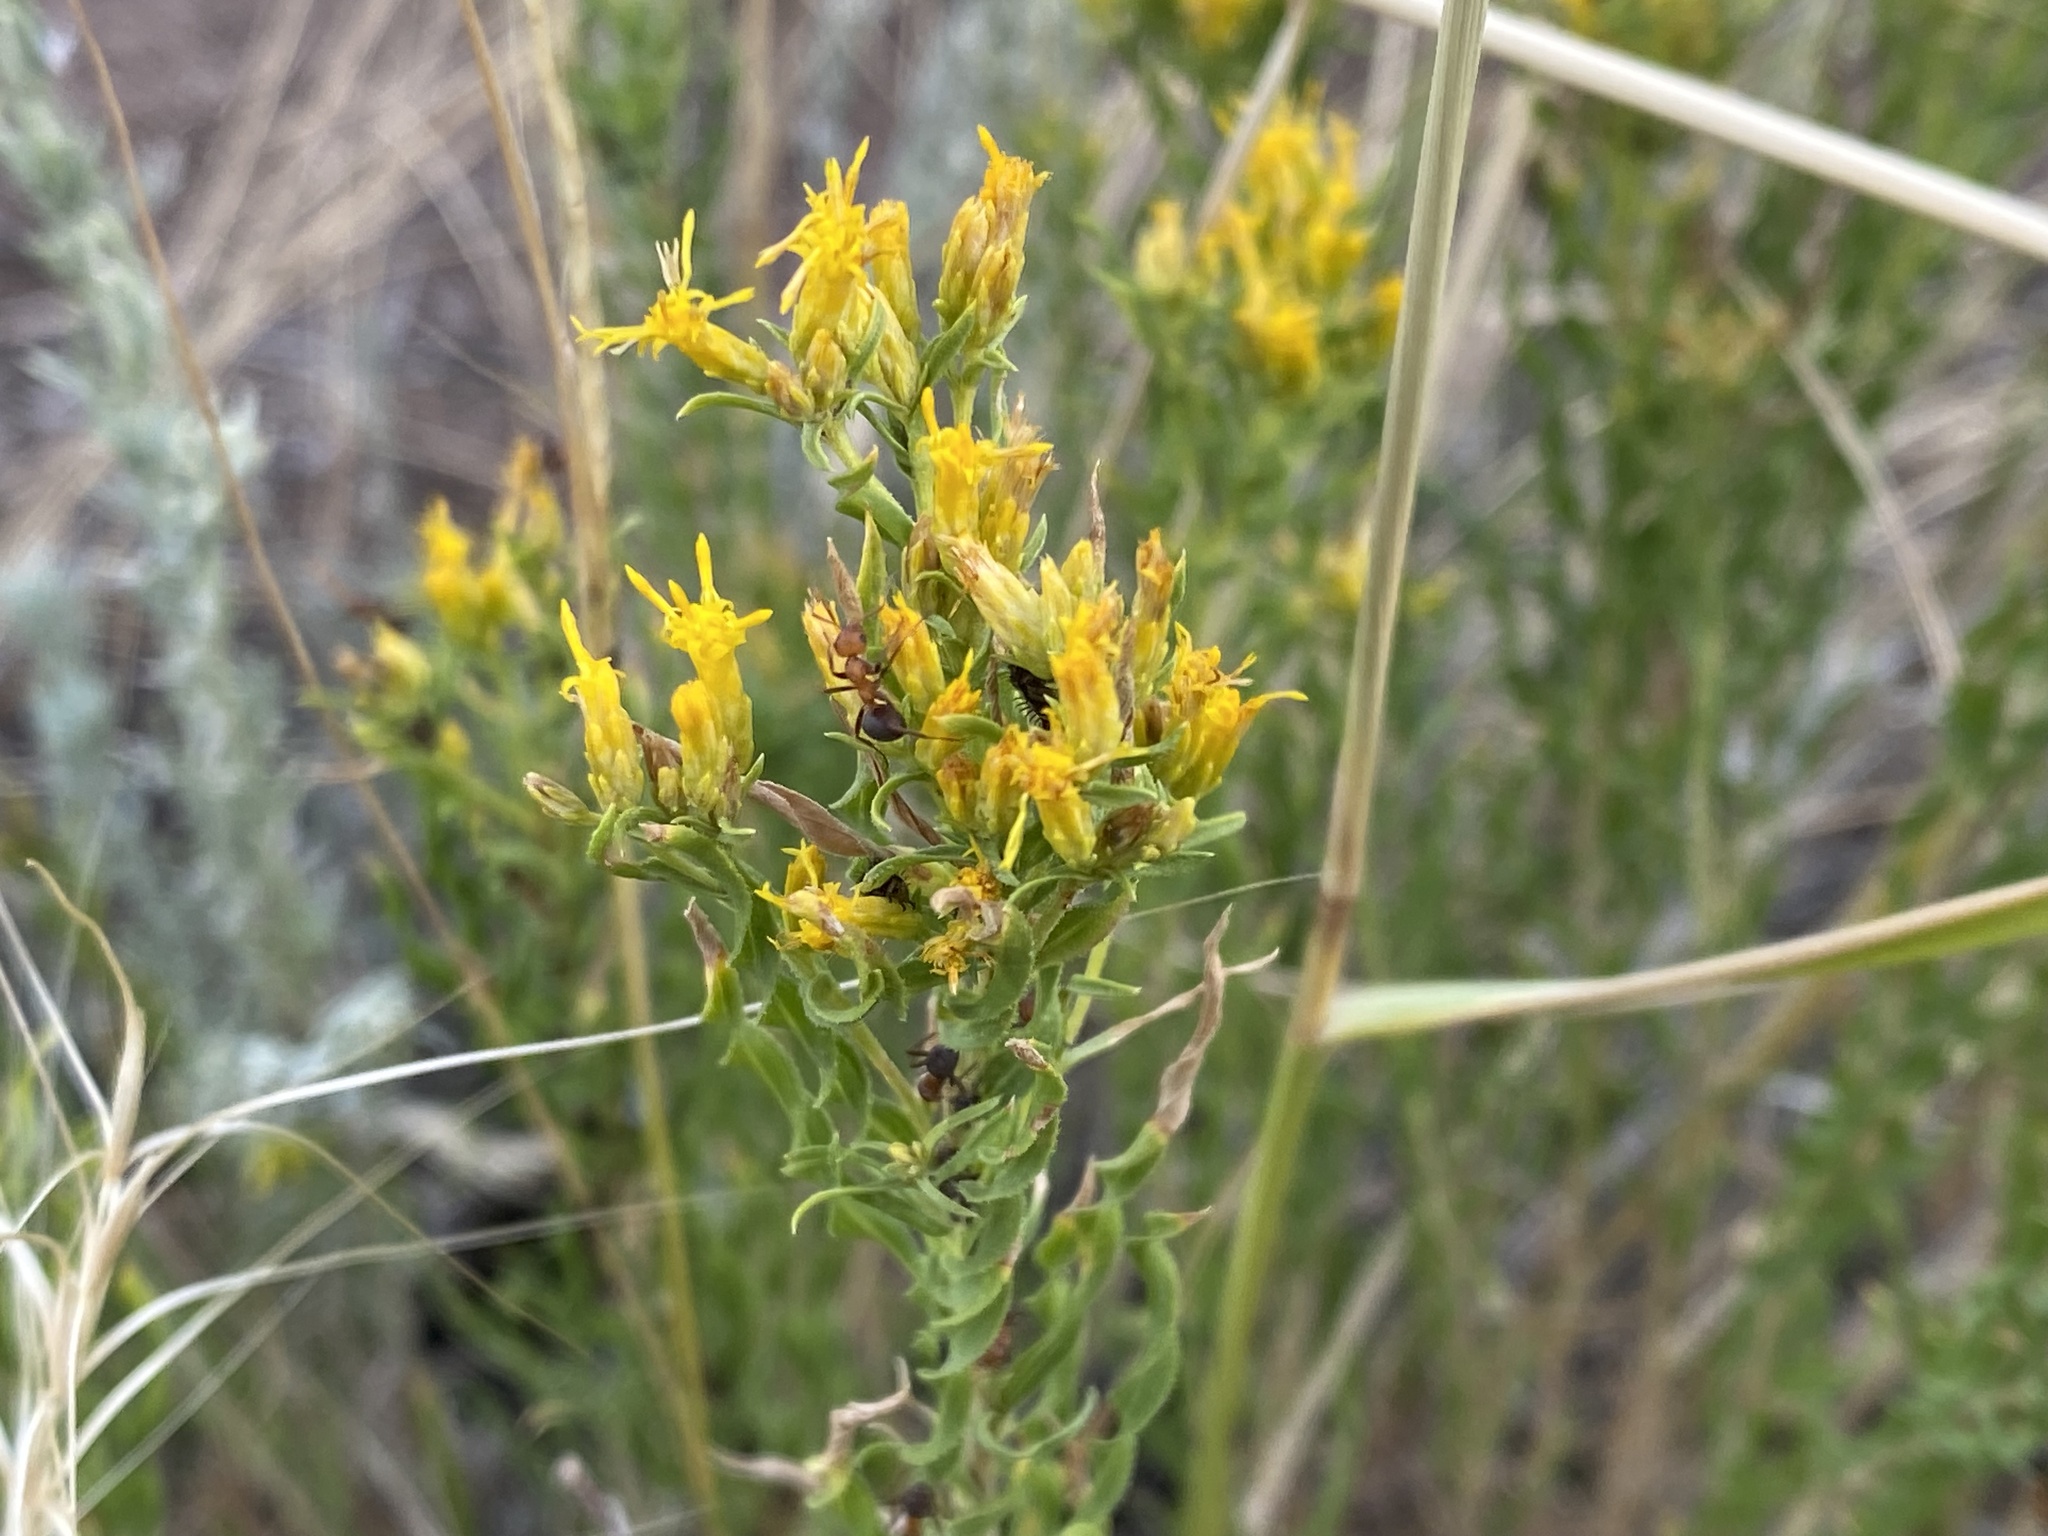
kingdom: Plantae
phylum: Tracheophyta
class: Magnoliopsida
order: Asterales
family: Asteraceae
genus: Chrysothamnus
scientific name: Chrysothamnus viscidiflorus
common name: Yellow rabbitbrush
